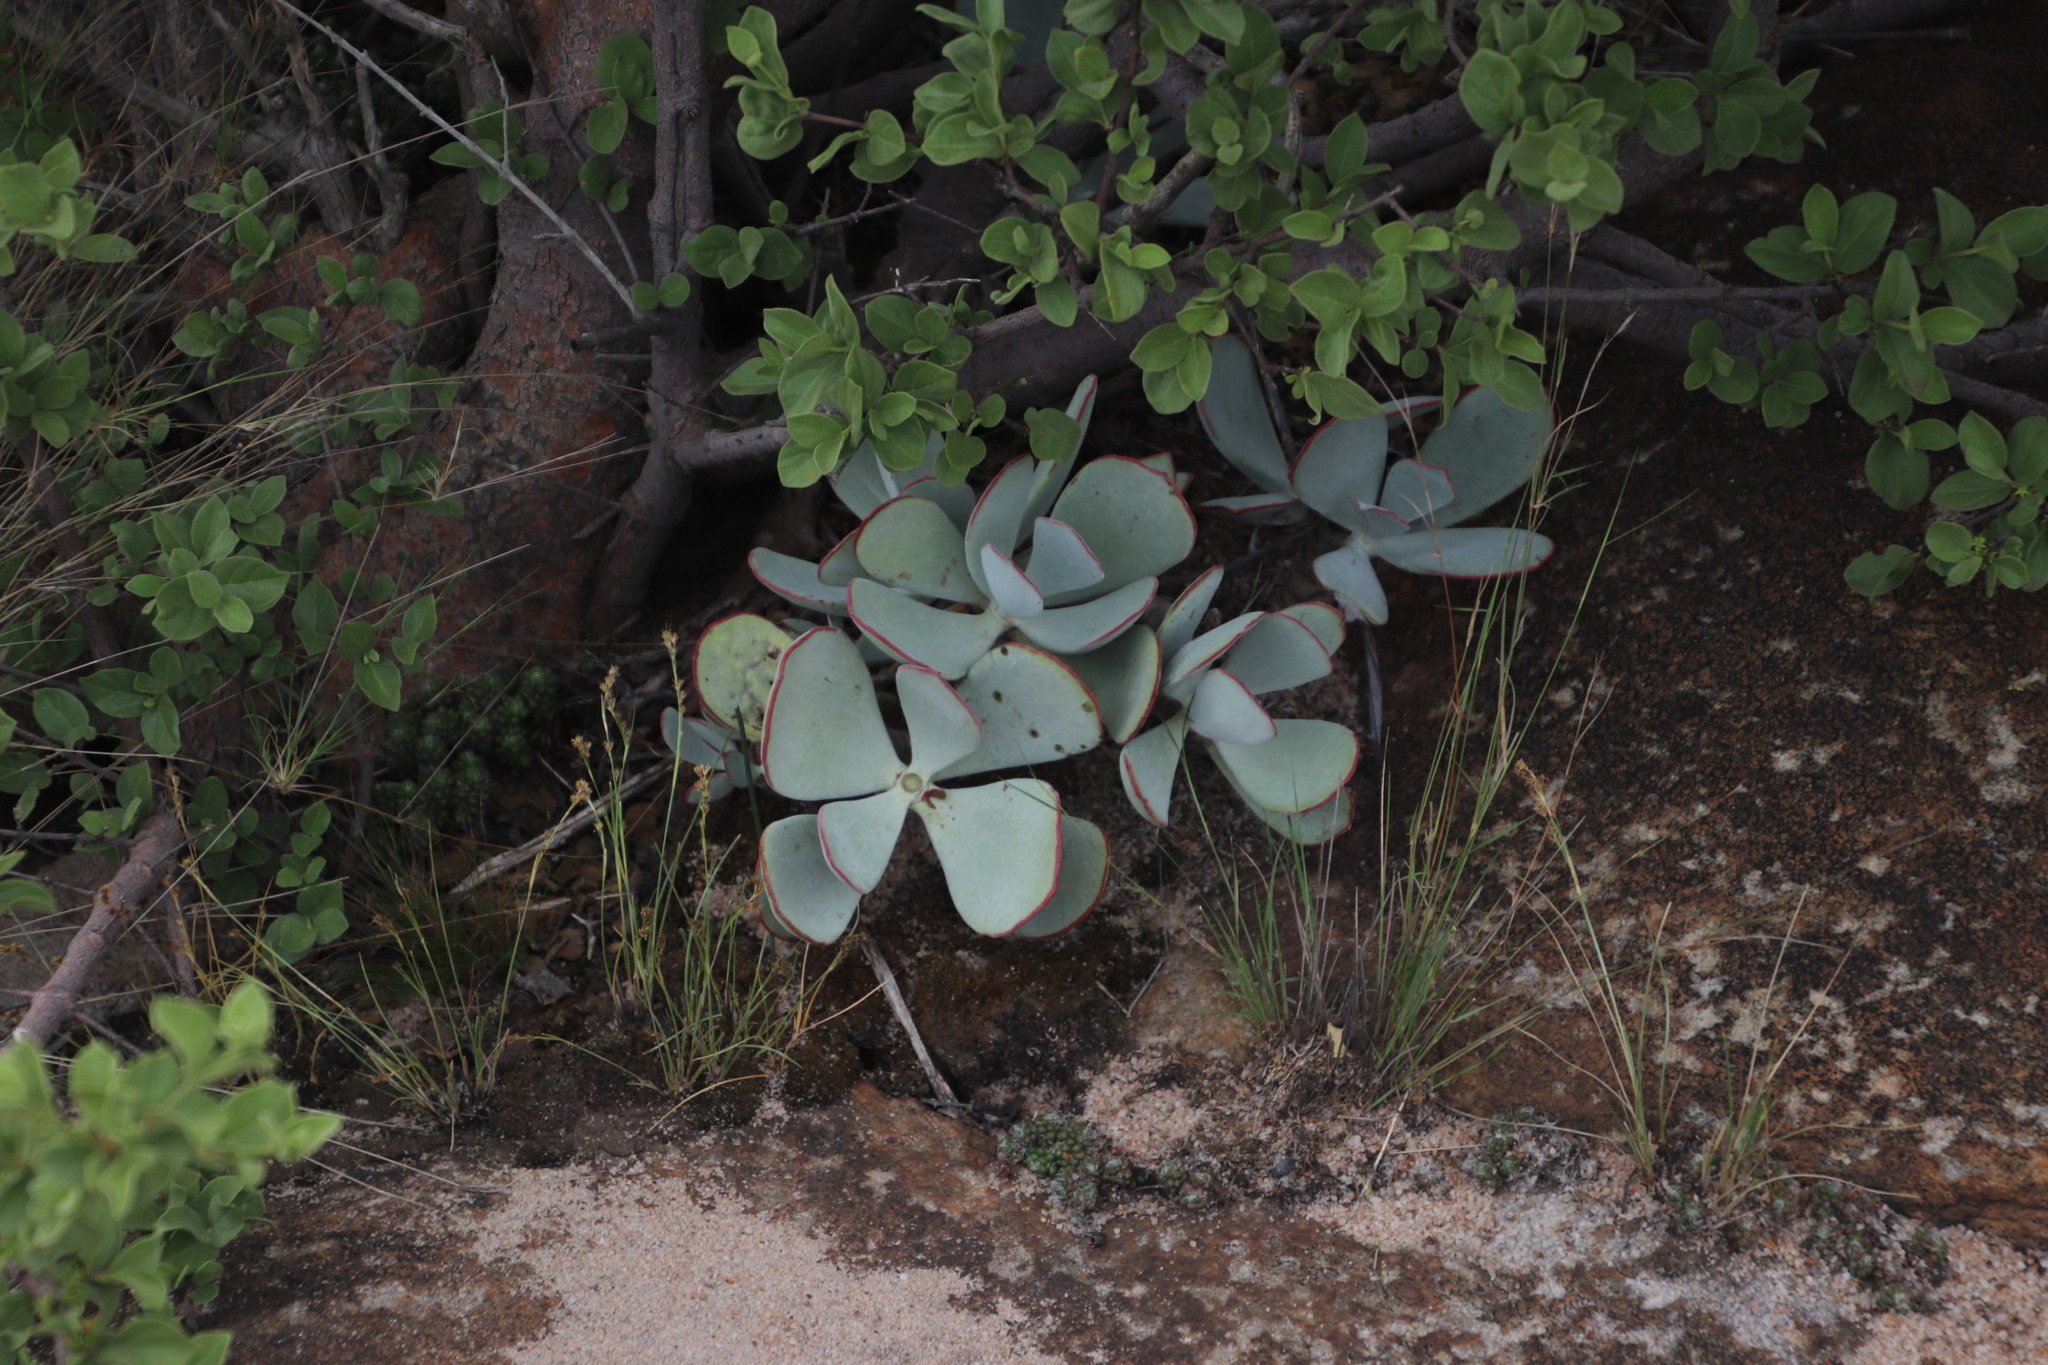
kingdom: Plantae
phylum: Tracheophyta
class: Magnoliopsida
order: Saxifragales
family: Crassulaceae
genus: Cotyledon
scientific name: Cotyledon orbiculata
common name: Pig's ear
